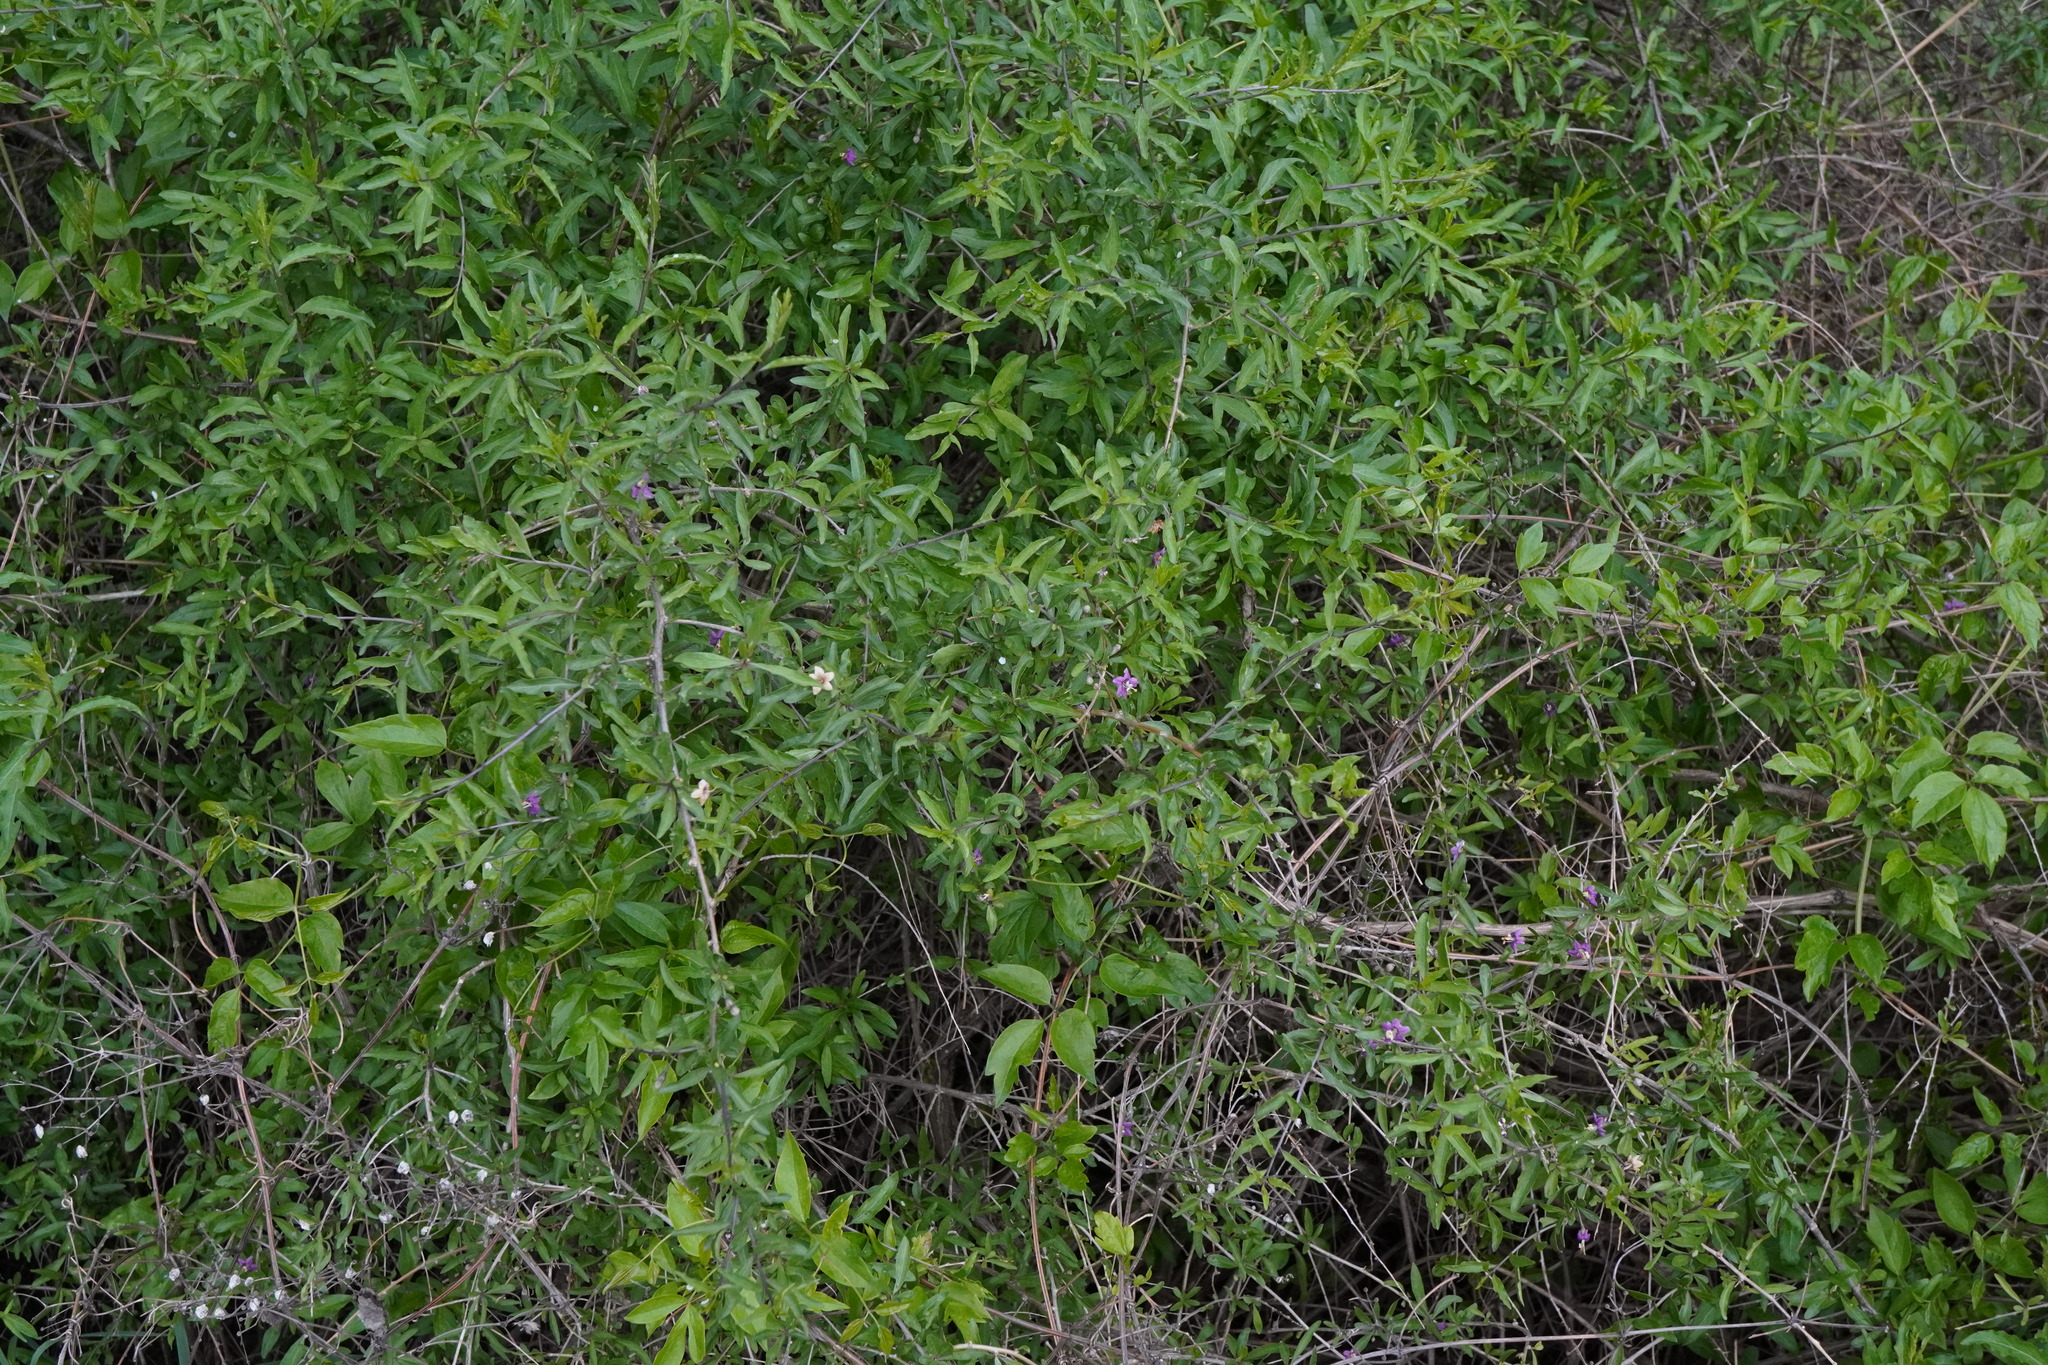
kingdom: Plantae
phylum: Tracheophyta
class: Magnoliopsida
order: Solanales
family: Solanaceae
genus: Lycium
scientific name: Lycium barbarum
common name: Duke of argyll's teaplant
